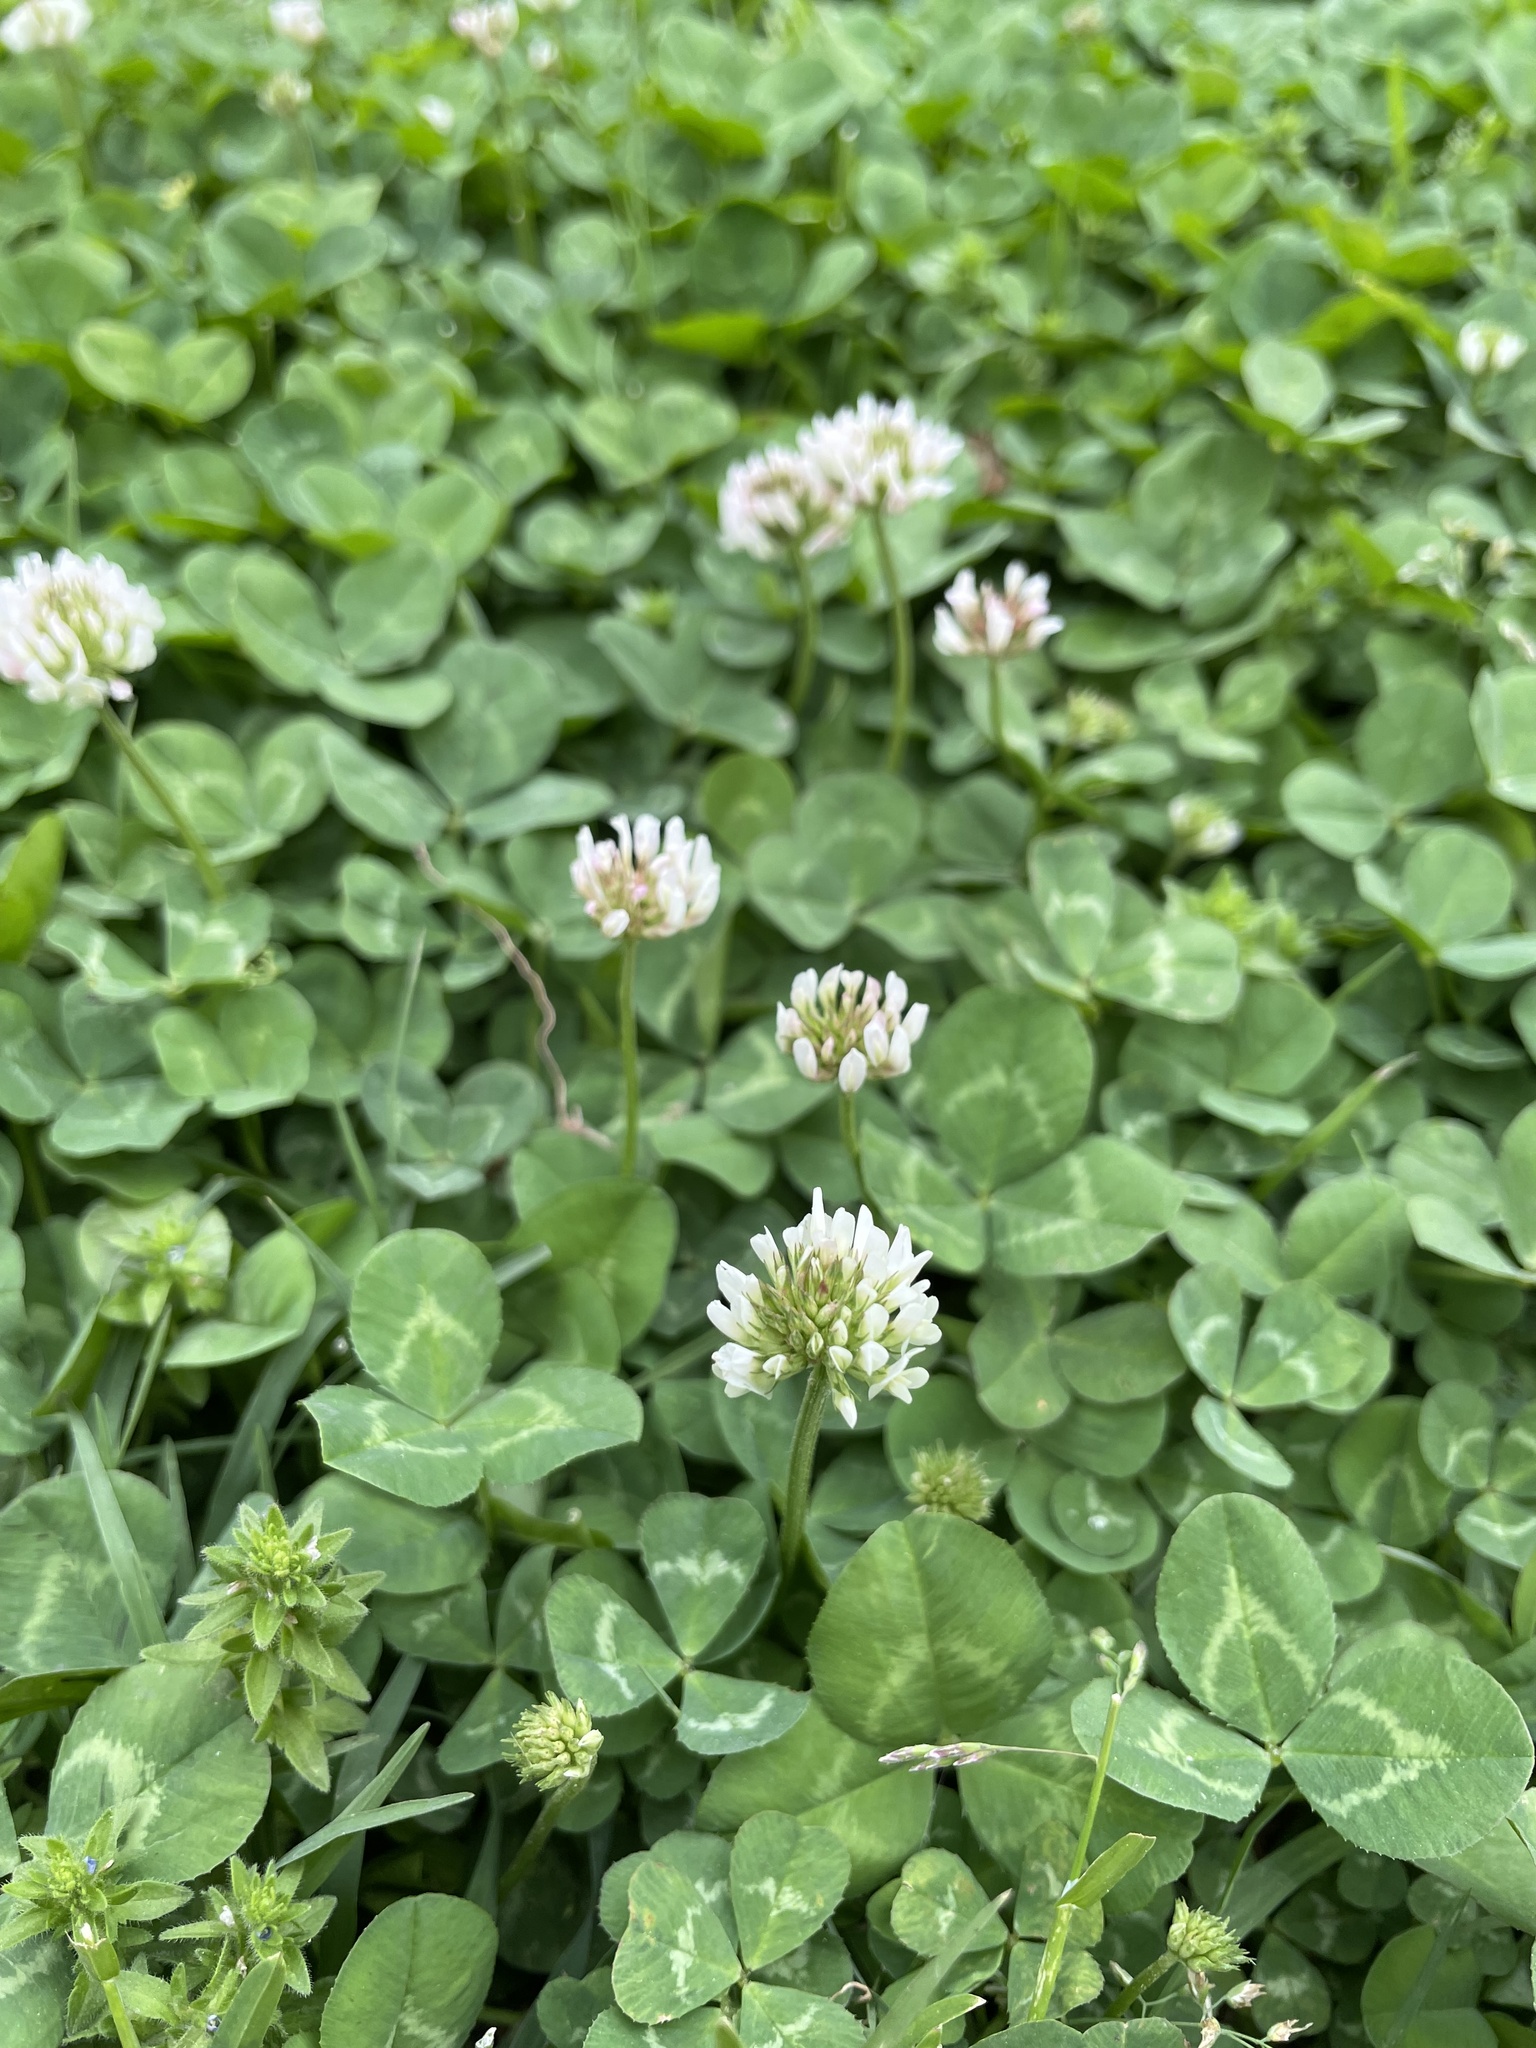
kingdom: Plantae
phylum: Tracheophyta
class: Magnoliopsida
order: Fabales
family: Fabaceae
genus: Trifolium
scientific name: Trifolium repens
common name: White clover
